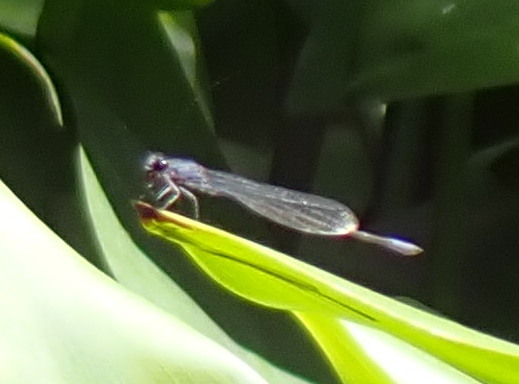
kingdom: Animalia
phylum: Arthropoda
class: Insecta
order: Odonata
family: Coenagrionidae
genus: Enallagma
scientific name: Enallagma cardenium
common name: Purple bluet
